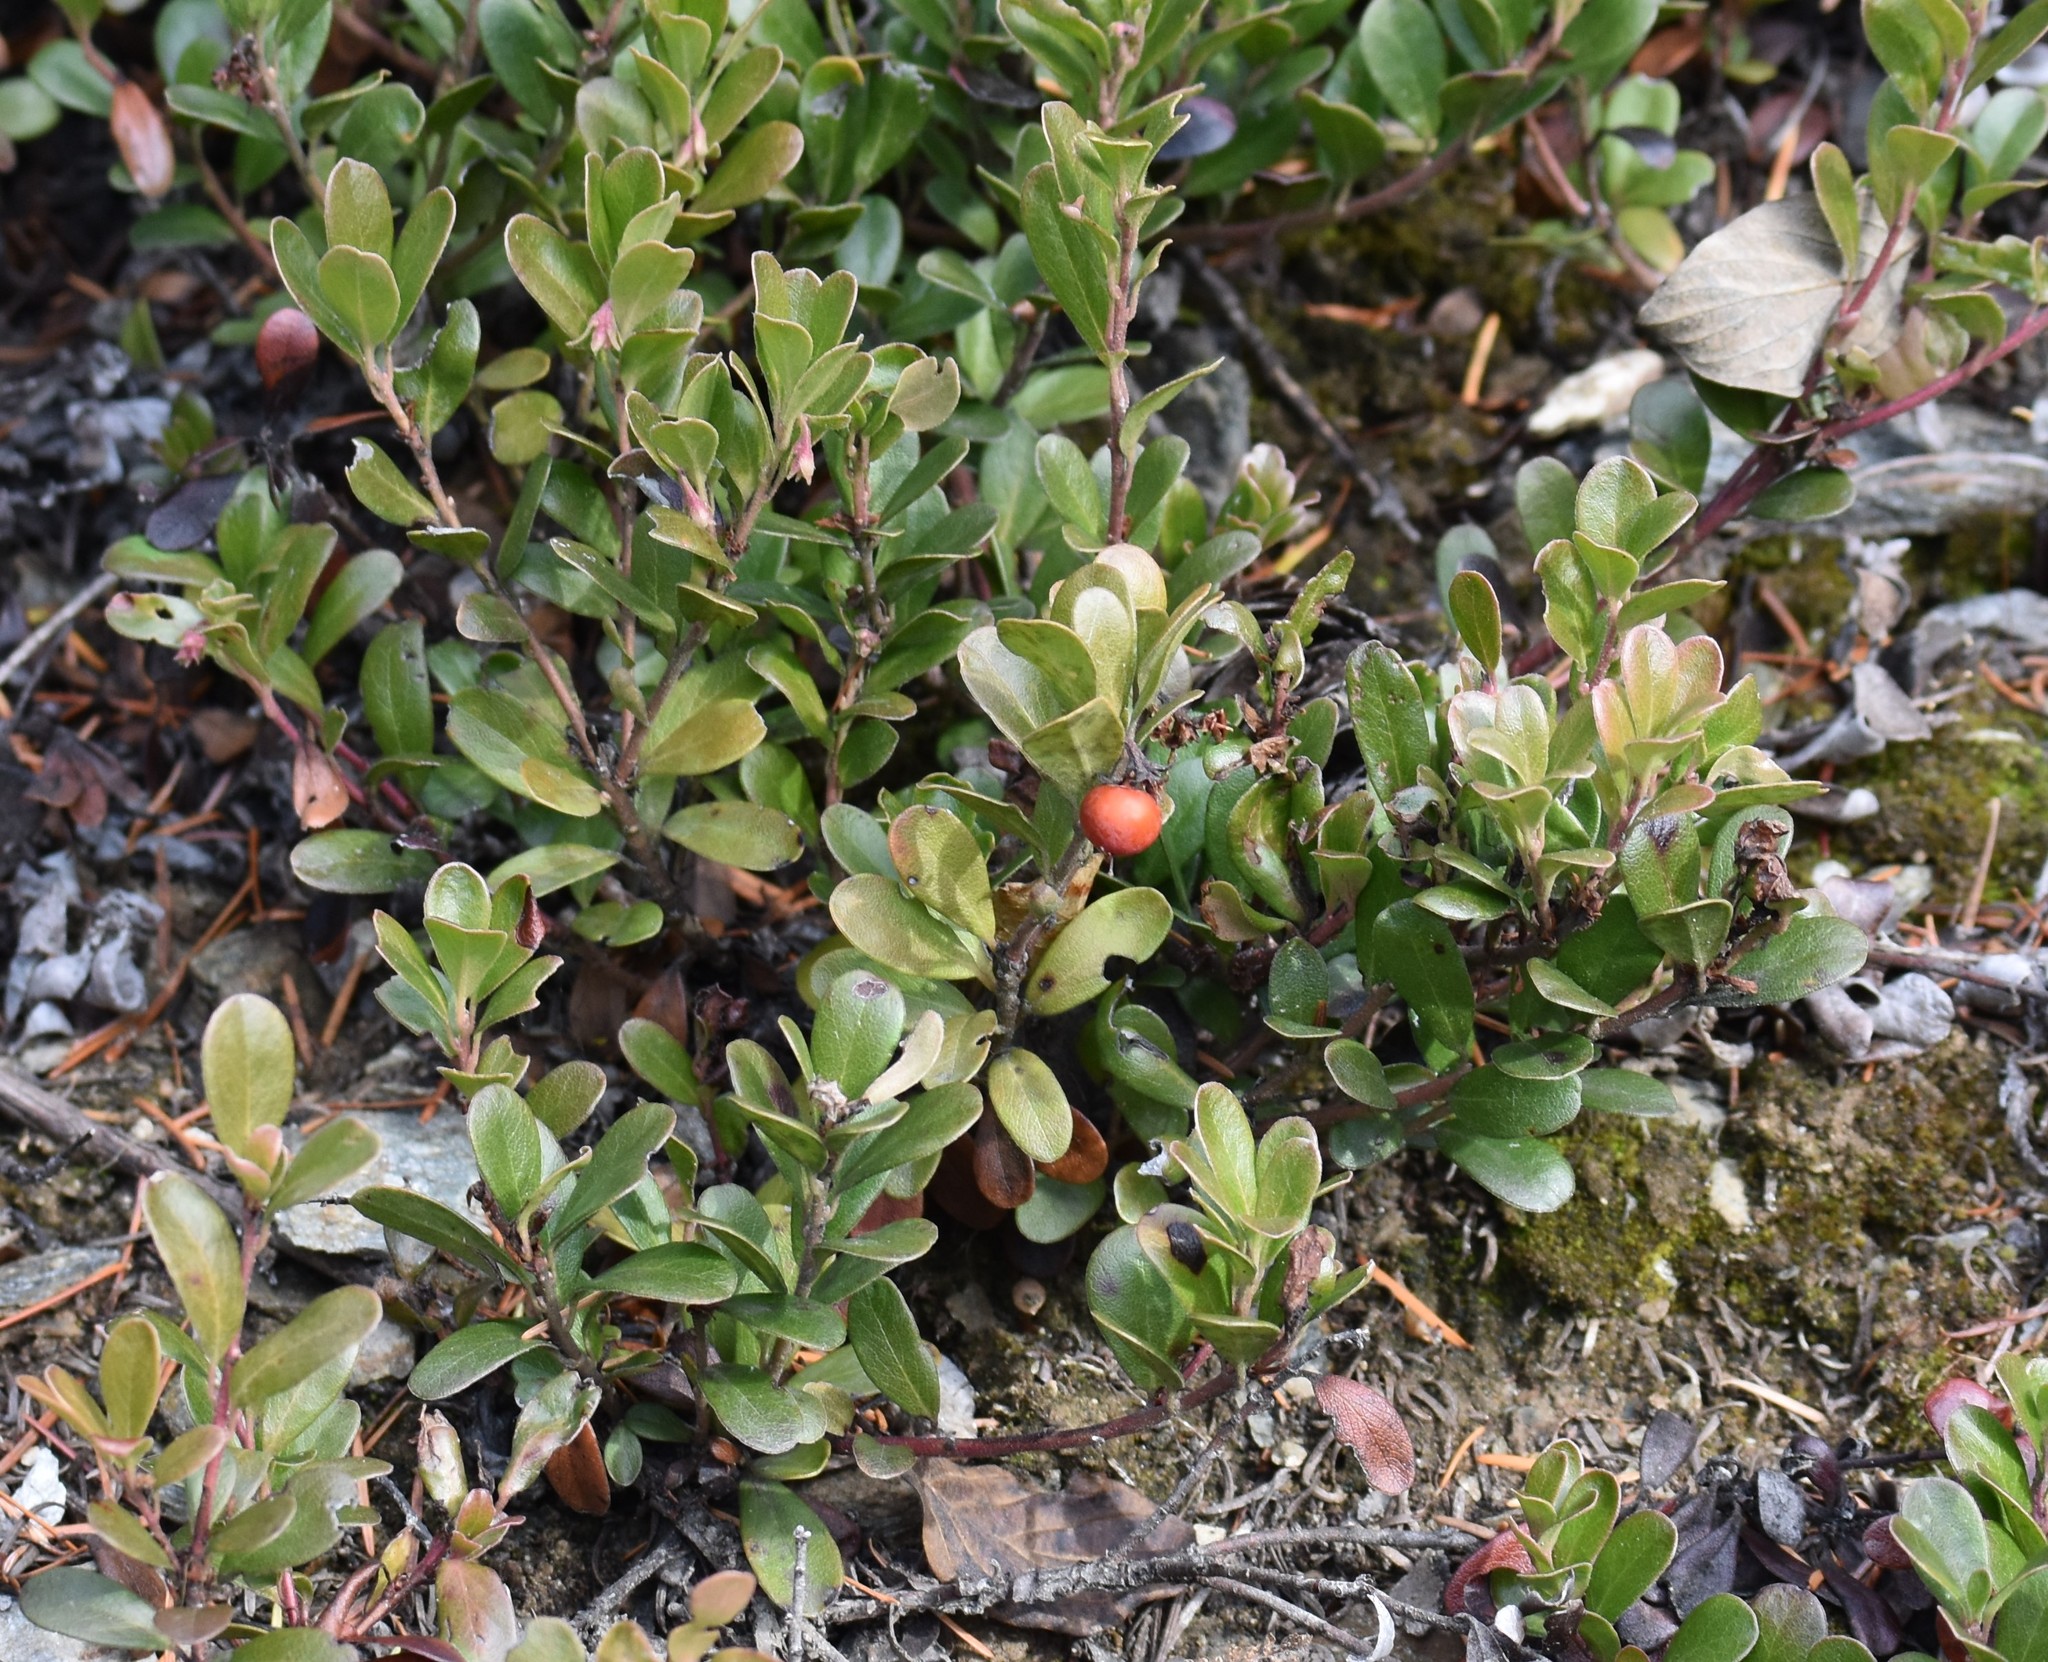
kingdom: Plantae
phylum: Tracheophyta
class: Magnoliopsida
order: Ericales
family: Ericaceae
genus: Arctostaphylos
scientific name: Arctostaphylos uva-ursi
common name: Bearberry
